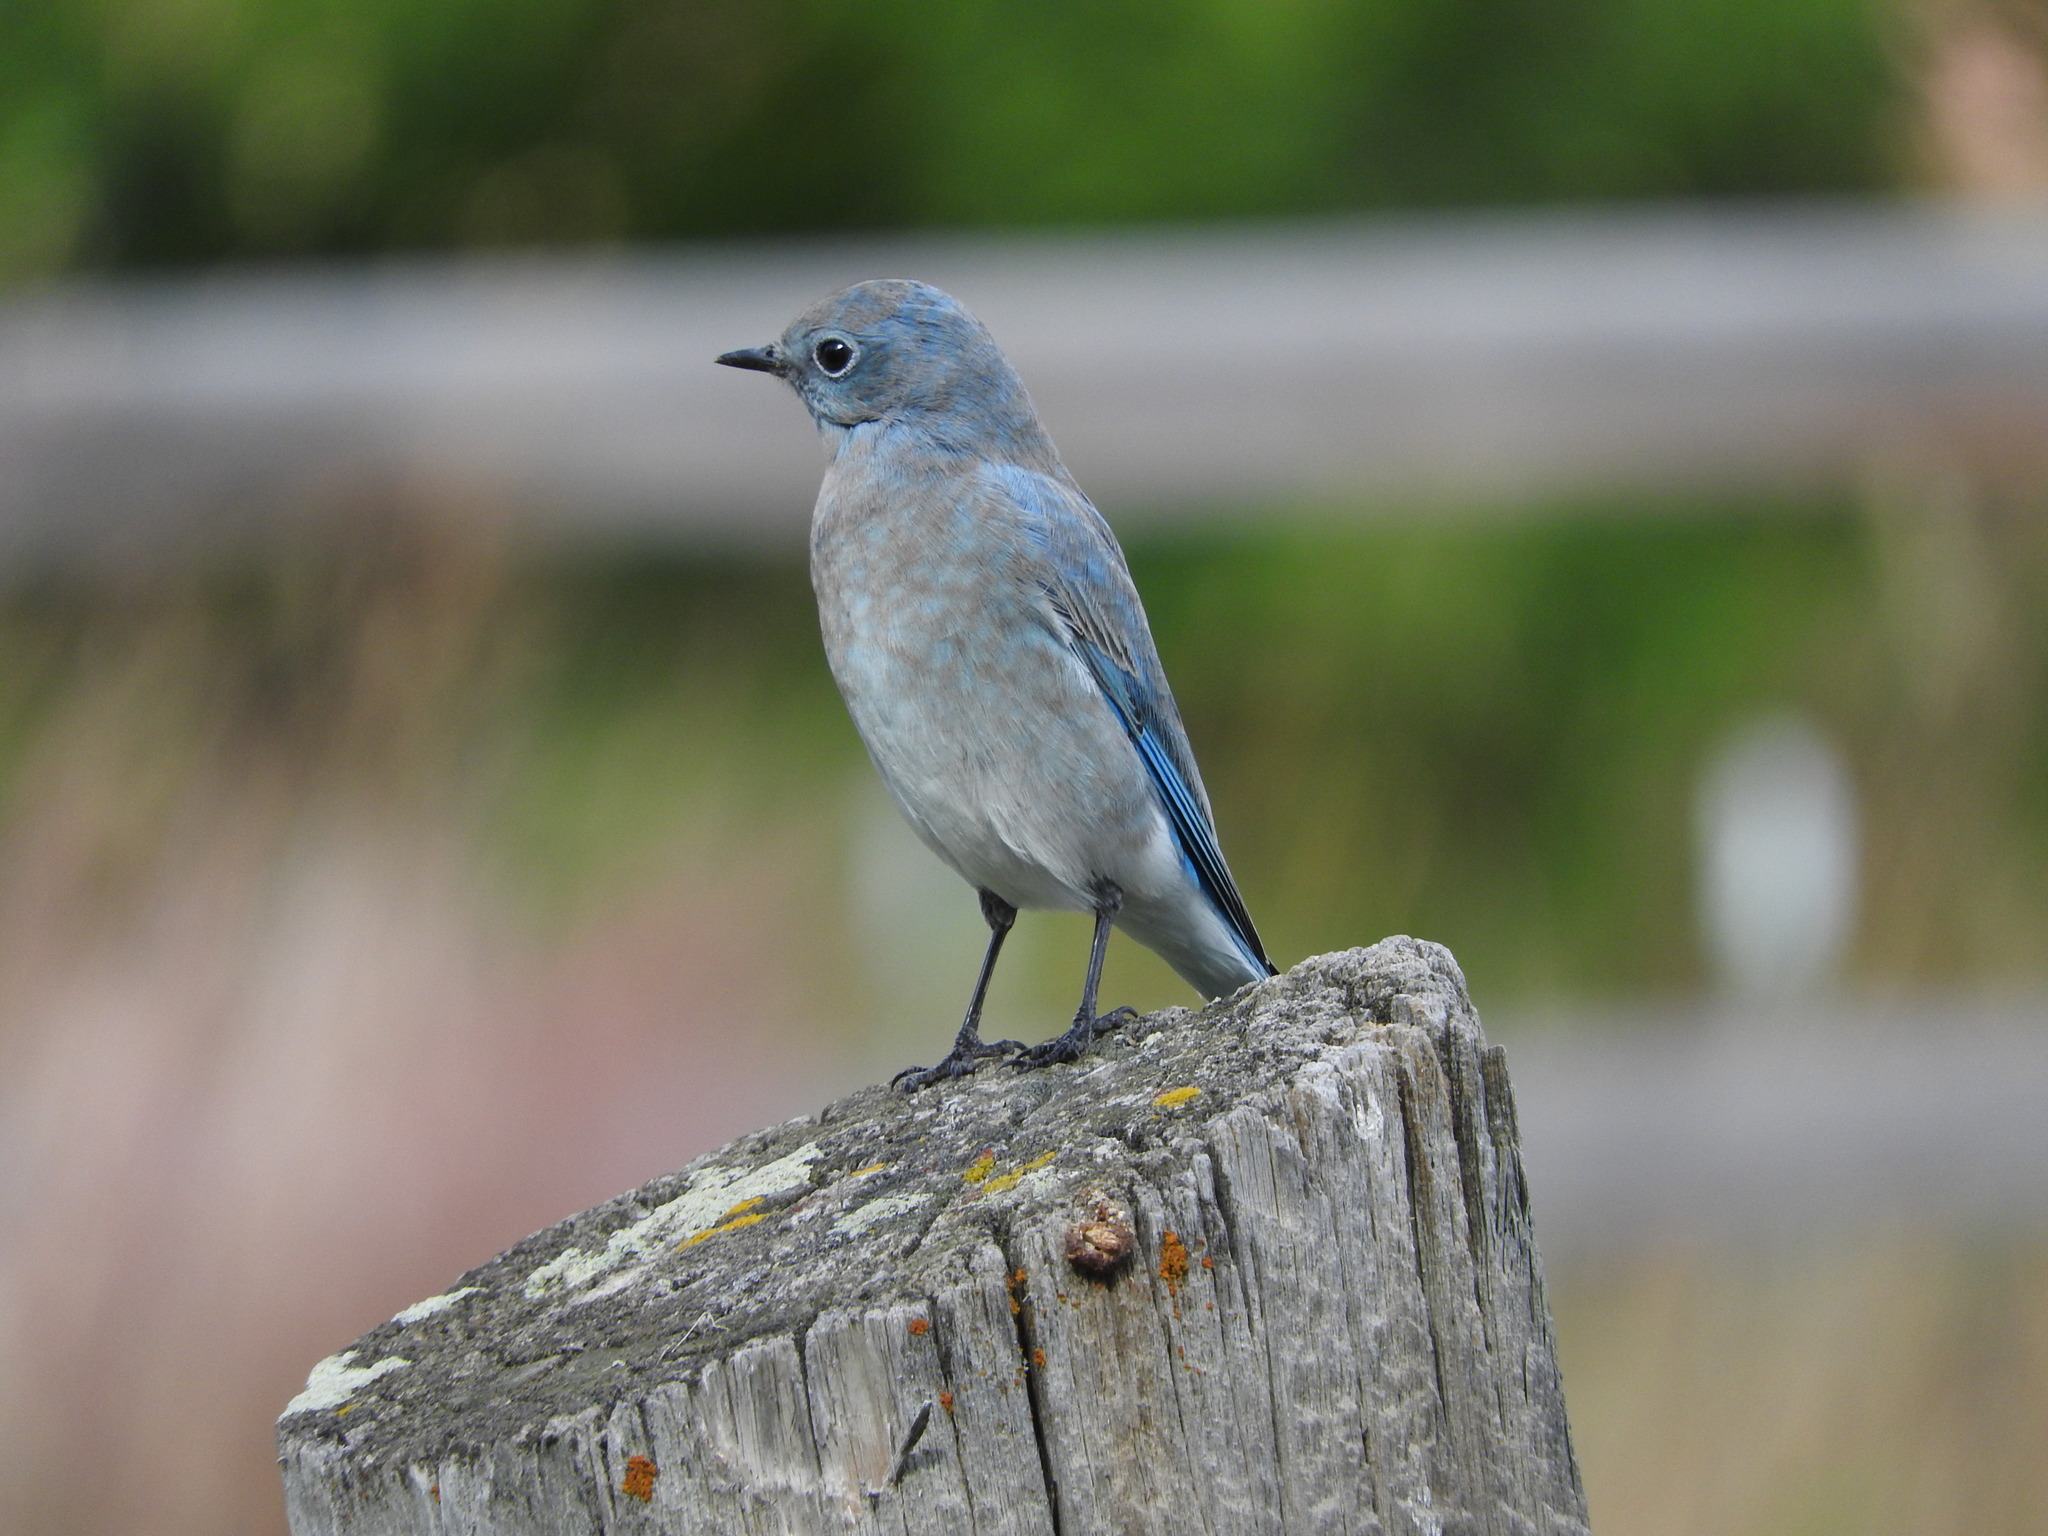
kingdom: Animalia
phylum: Chordata
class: Aves
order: Passeriformes
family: Turdidae
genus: Sialia
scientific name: Sialia currucoides
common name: Mountain bluebird
